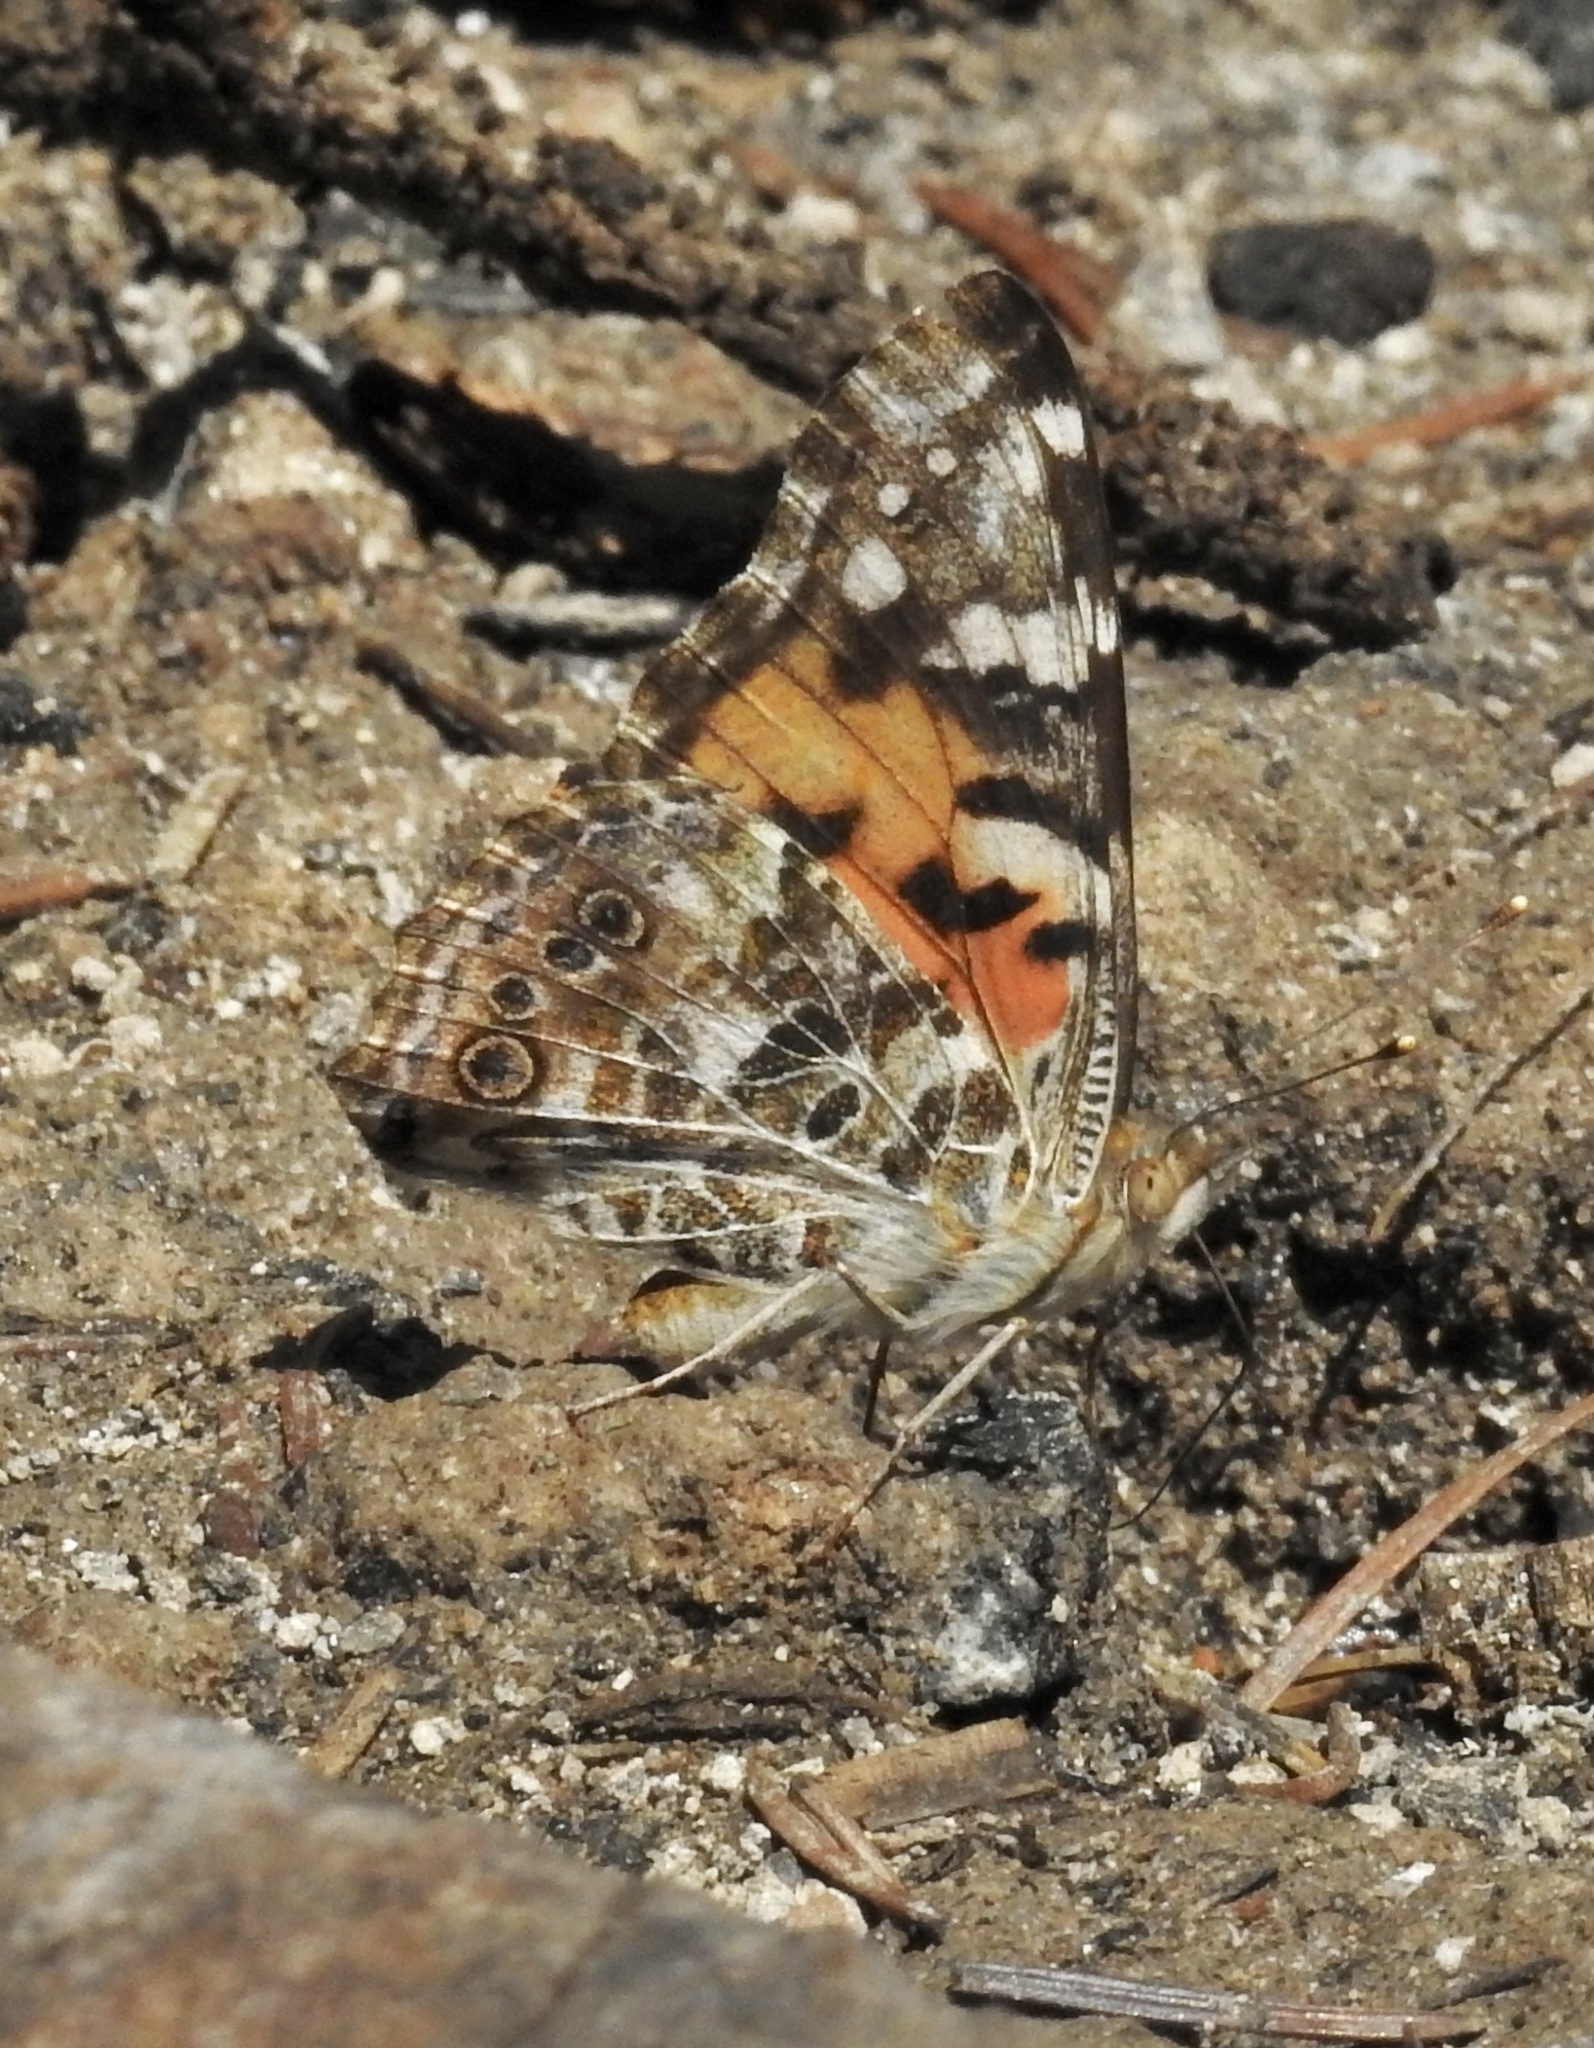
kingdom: Animalia
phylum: Arthropoda
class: Insecta
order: Lepidoptera
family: Nymphalidae
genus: Vanessa
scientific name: Vanessa cardui
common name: Painted lady
